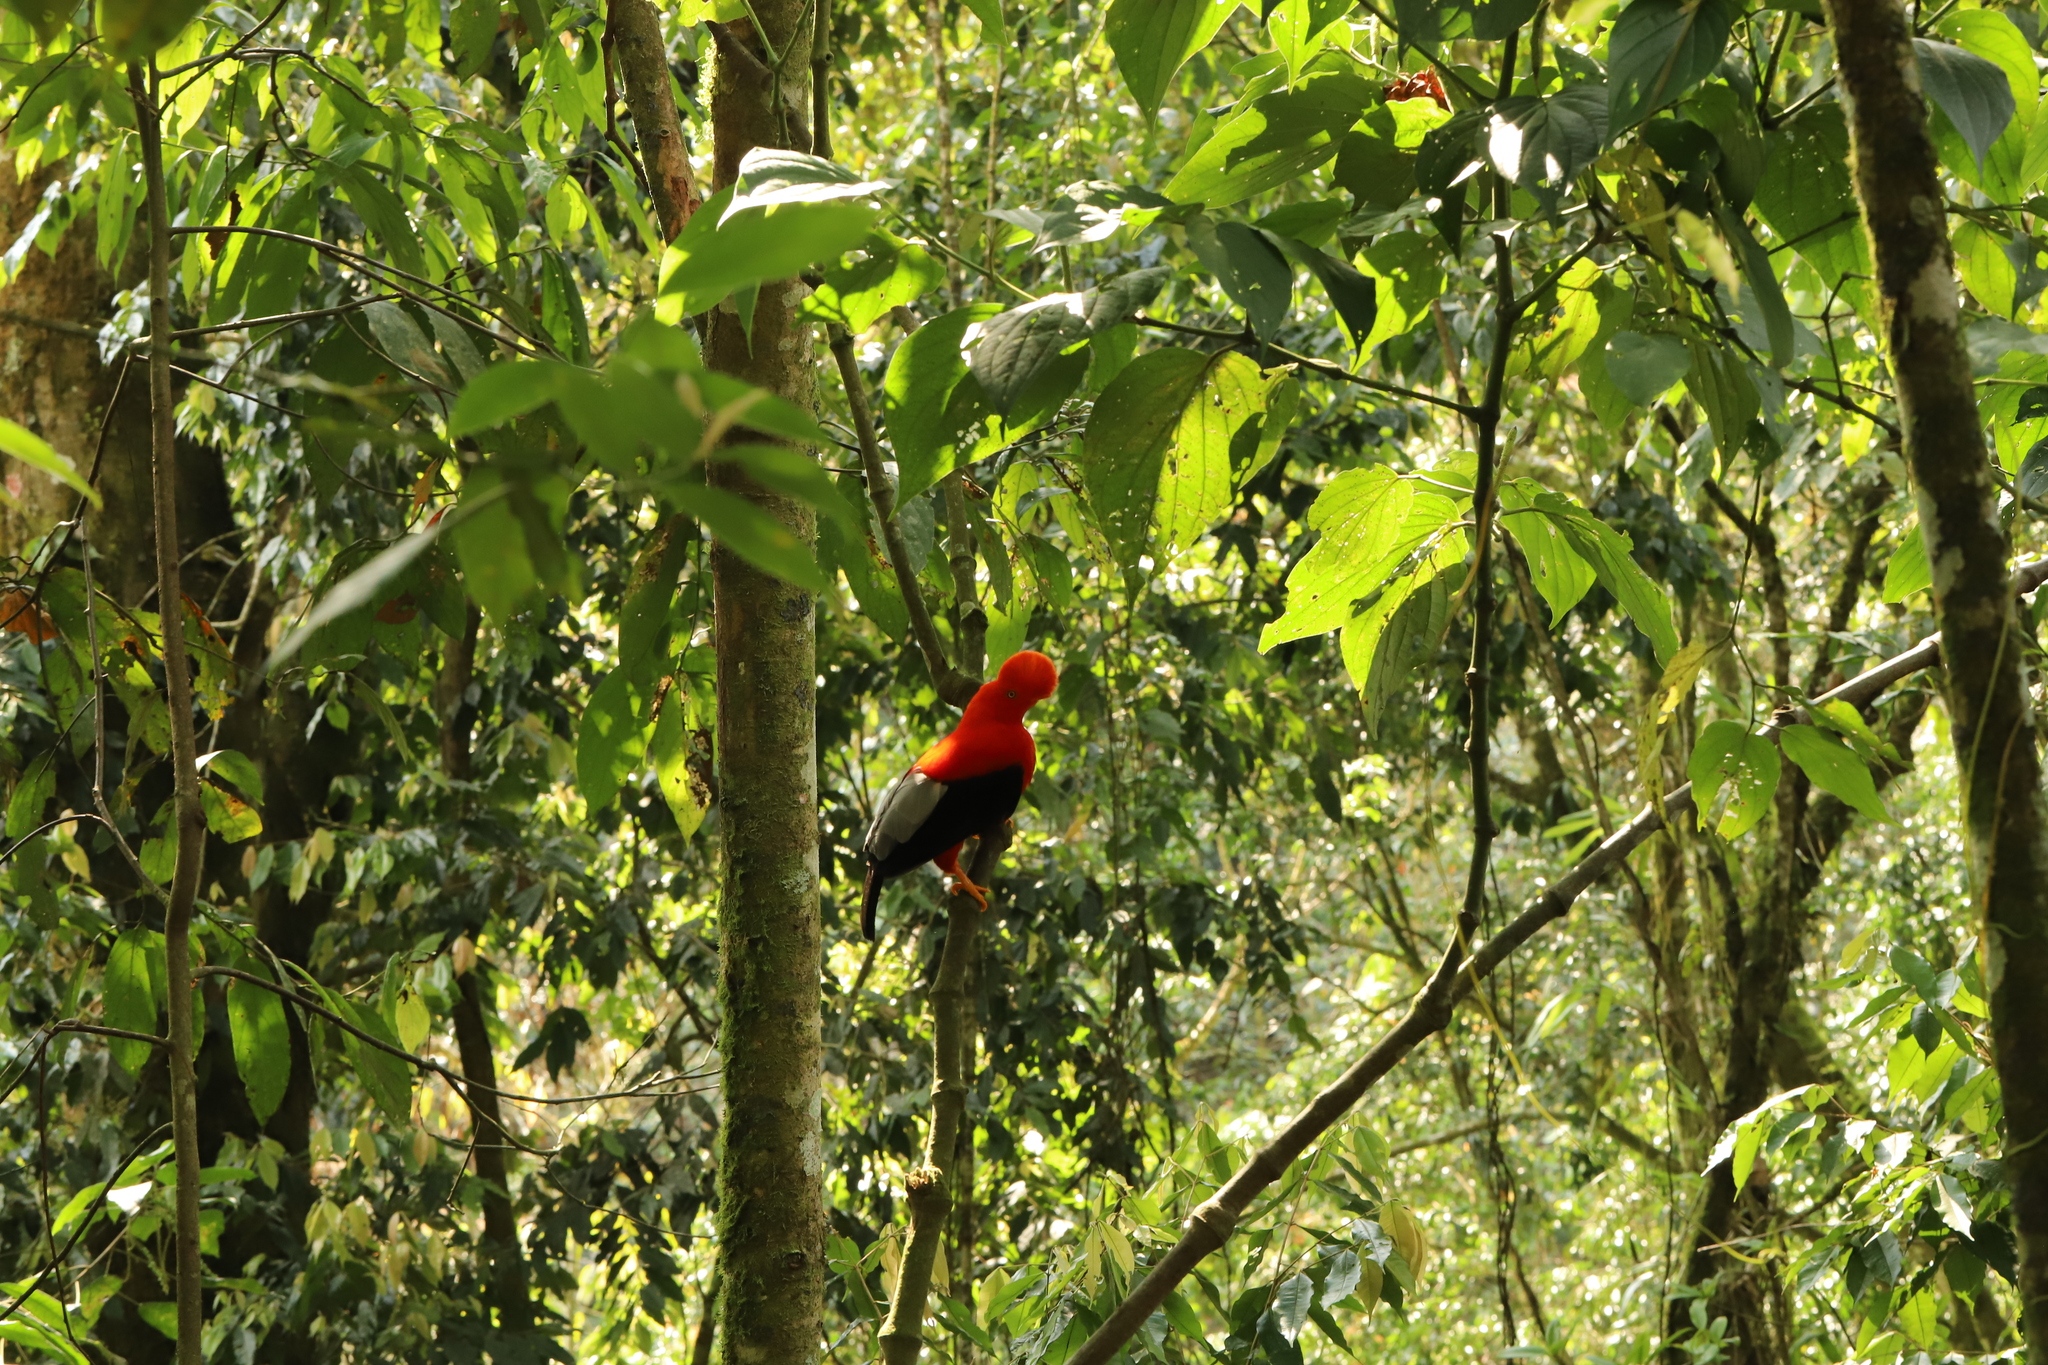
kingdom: Animalia
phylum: Chordata
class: Aves
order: Passeriformes
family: Cotingidae
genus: Rupicola
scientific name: Rupicola peruvianus
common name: Andean cock-of-the-rock
